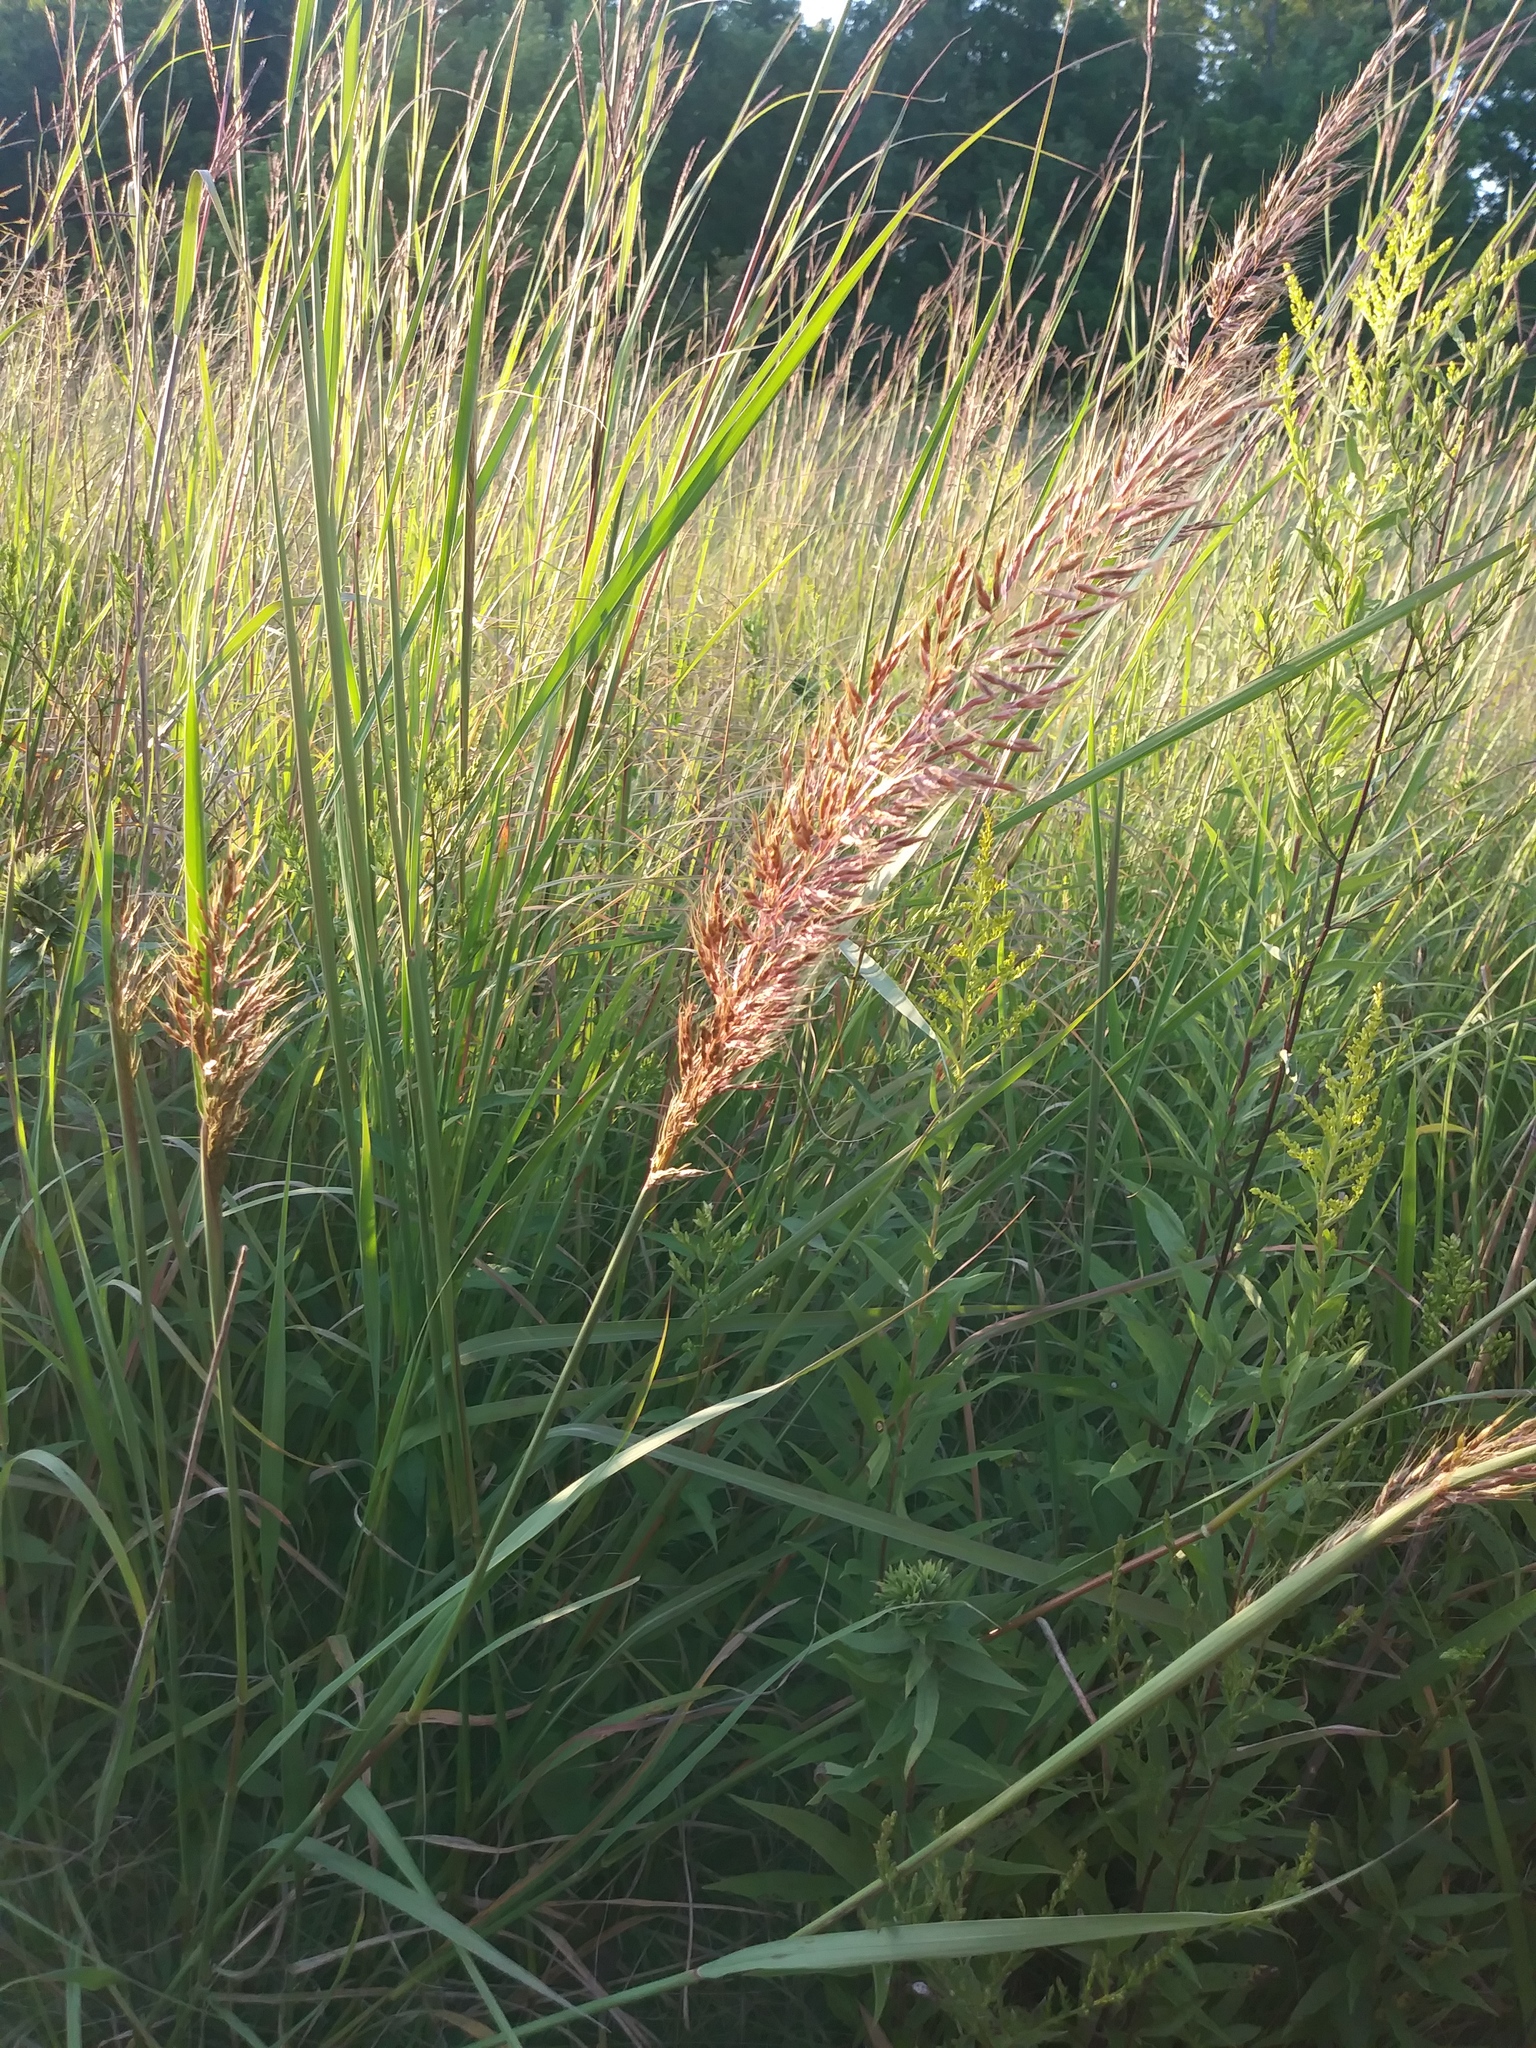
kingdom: Plantae
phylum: Tracheophyta
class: Liliopsida
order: Poales
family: Poaceae
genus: Sorghastrum
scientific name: Sorghastrum nutans
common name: Indian grass
